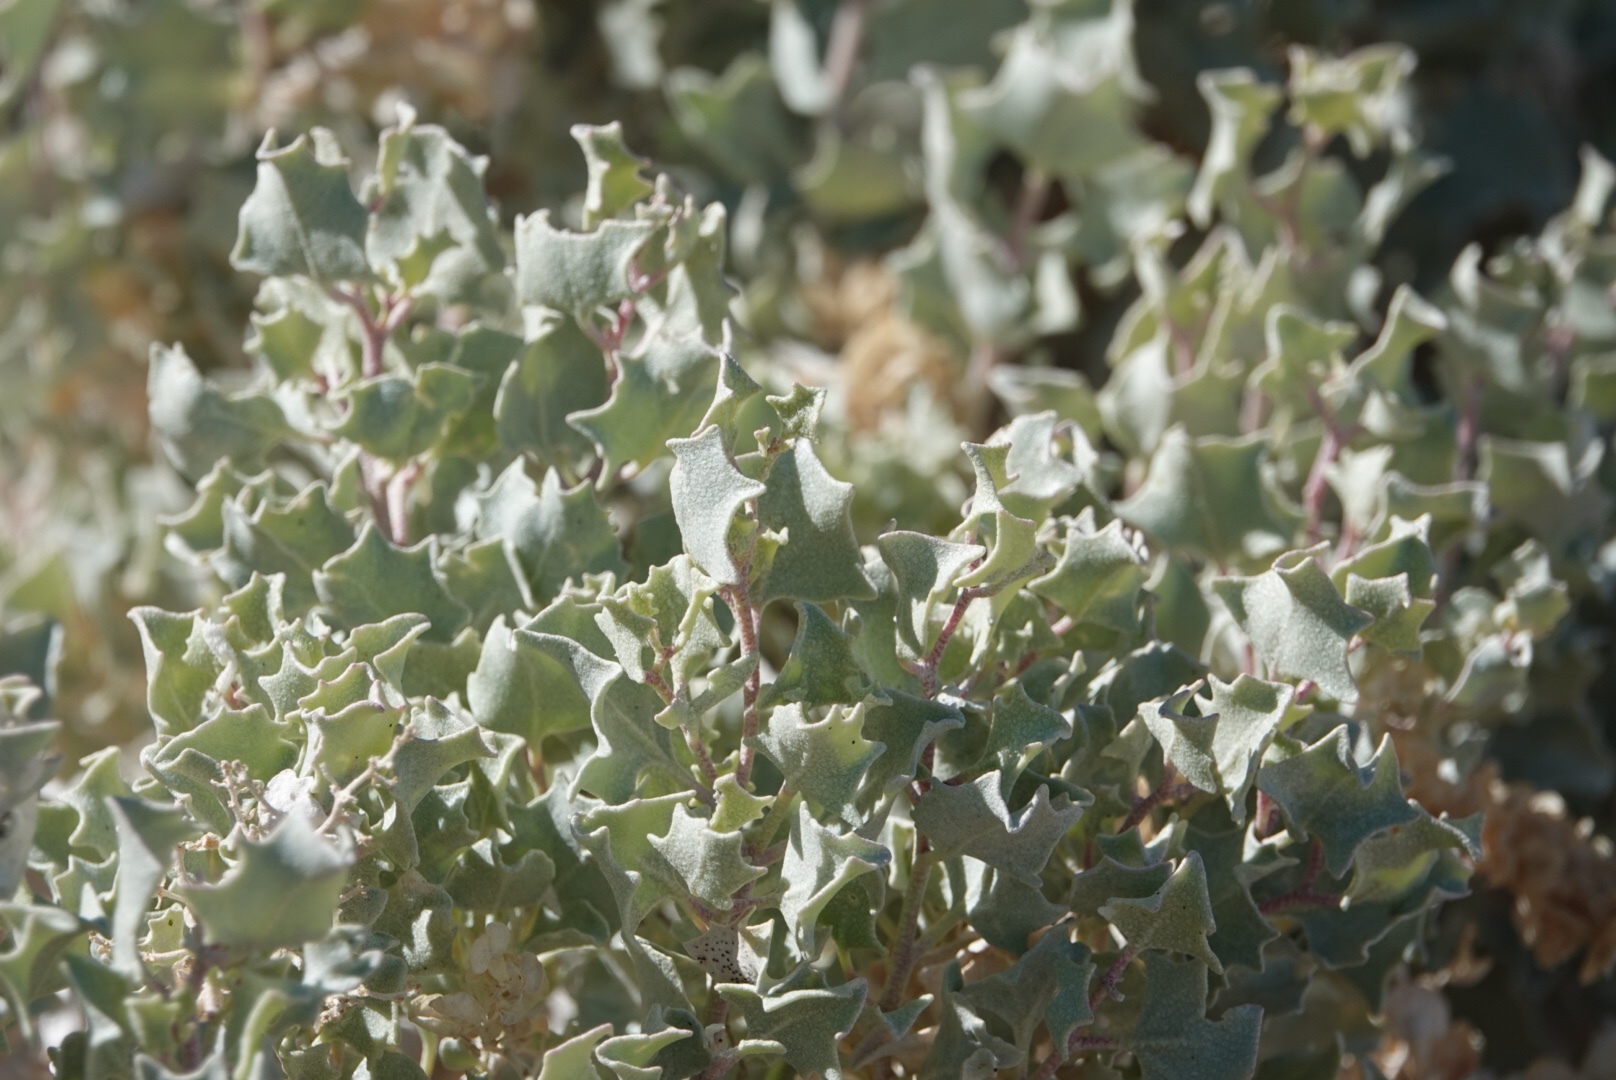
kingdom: Plantae
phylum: Tracheophyta
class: Magnoliopsida
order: Caryophyllales
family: Amaranthaceae
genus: Atriplex
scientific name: Atriplex hymenelytra
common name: Desert-holly
